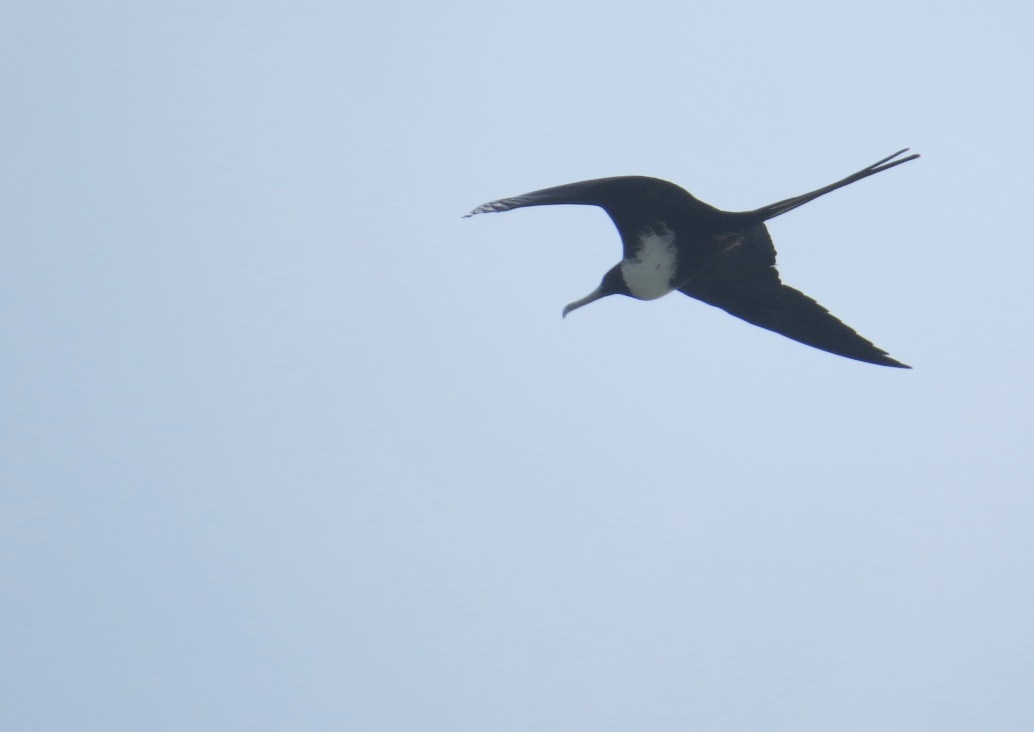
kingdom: Animalia
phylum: Chordata
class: Aves
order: Suliformes
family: Fregatidae
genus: Fregata
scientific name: Fregata magnificens
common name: Magnificent frigatebird
